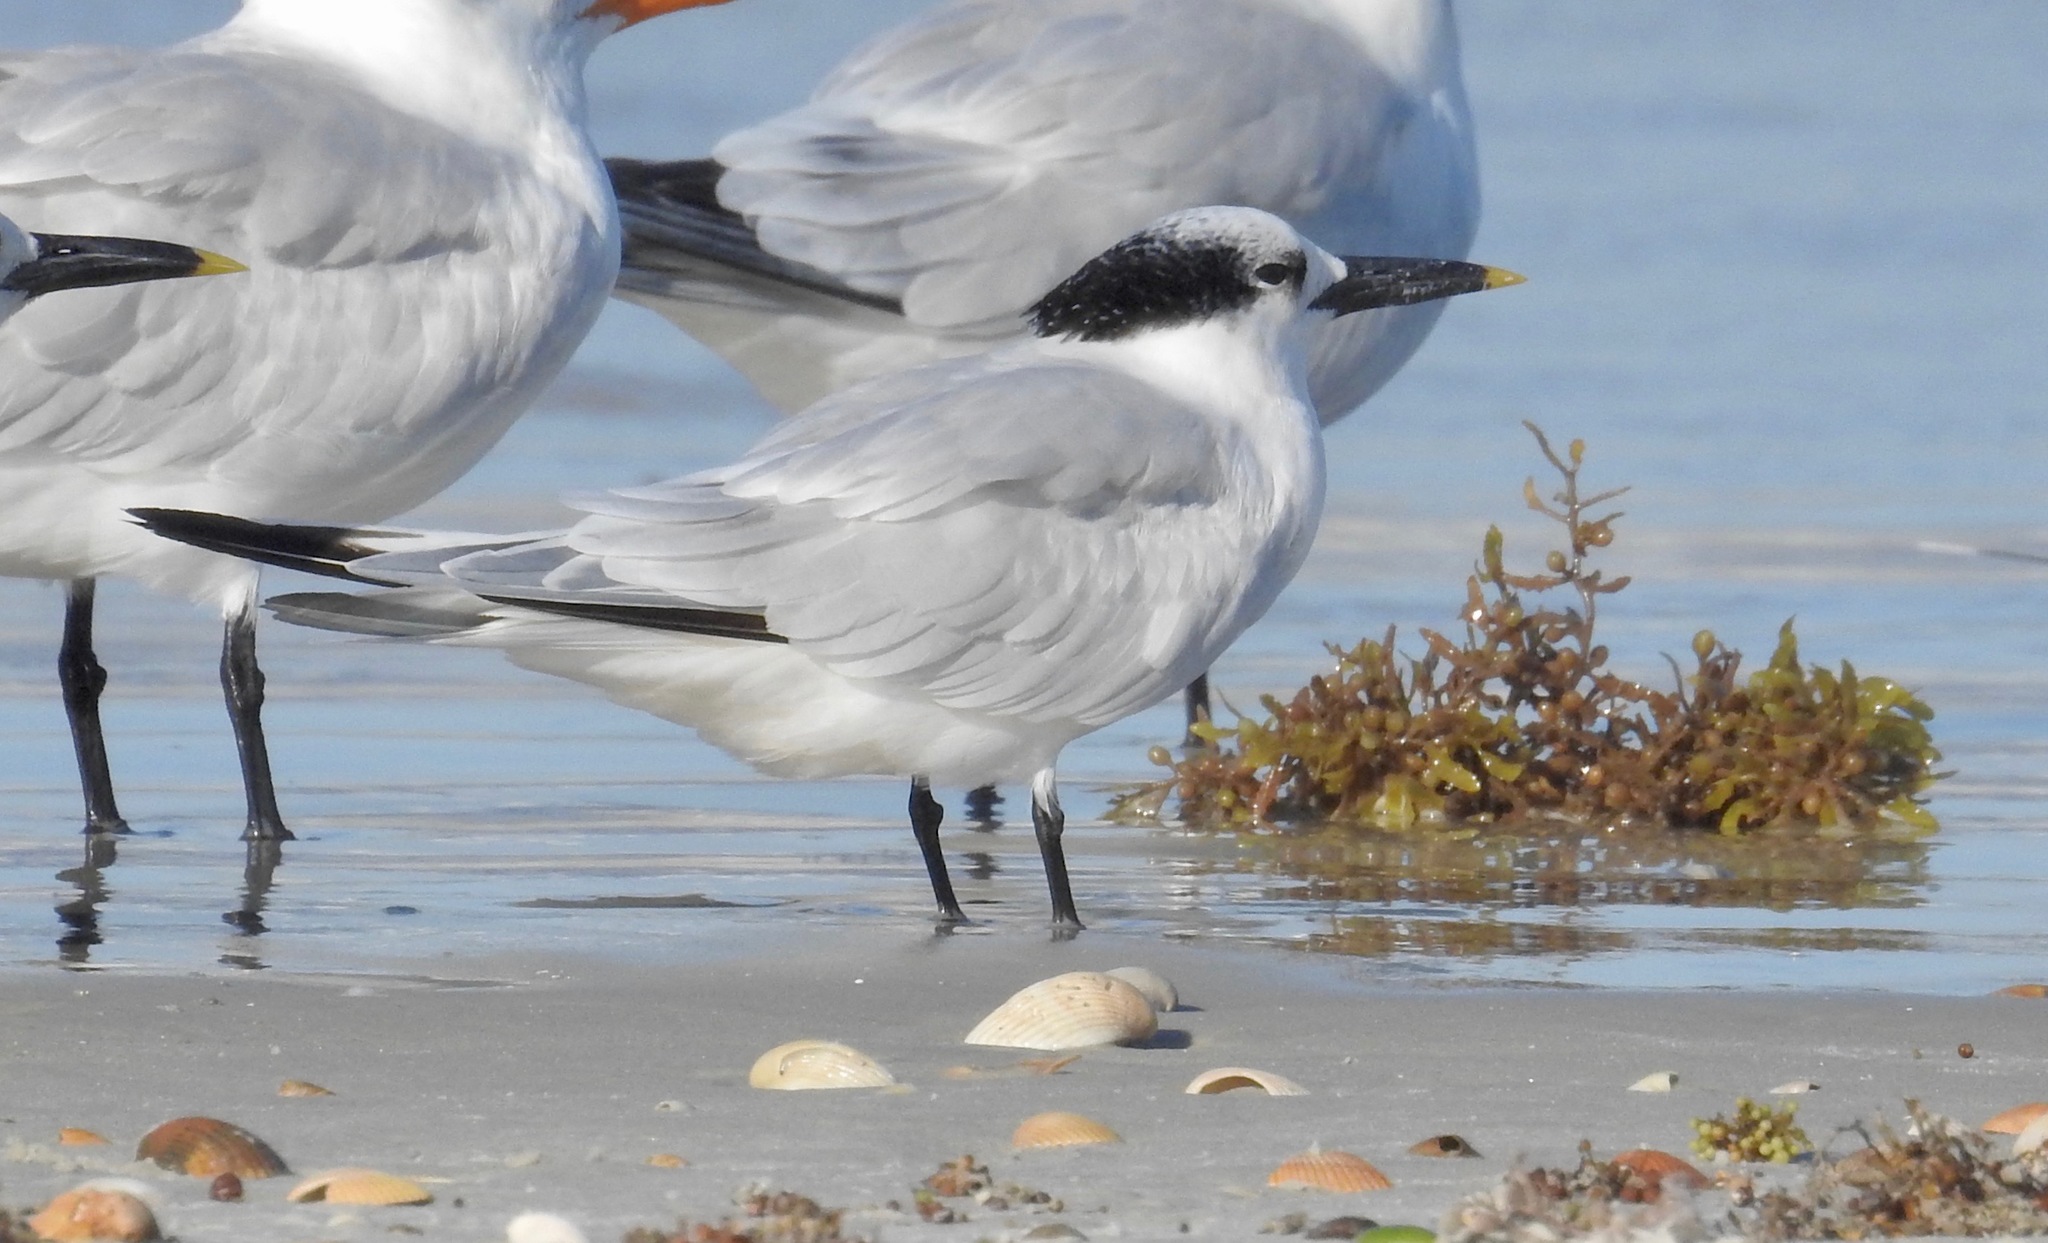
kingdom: Animalia
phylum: Chordata
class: Aves
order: Charadriiformes
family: Laridae
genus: Thalasseus
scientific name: Thalasseus sandvicensis
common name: Sandwich tern
